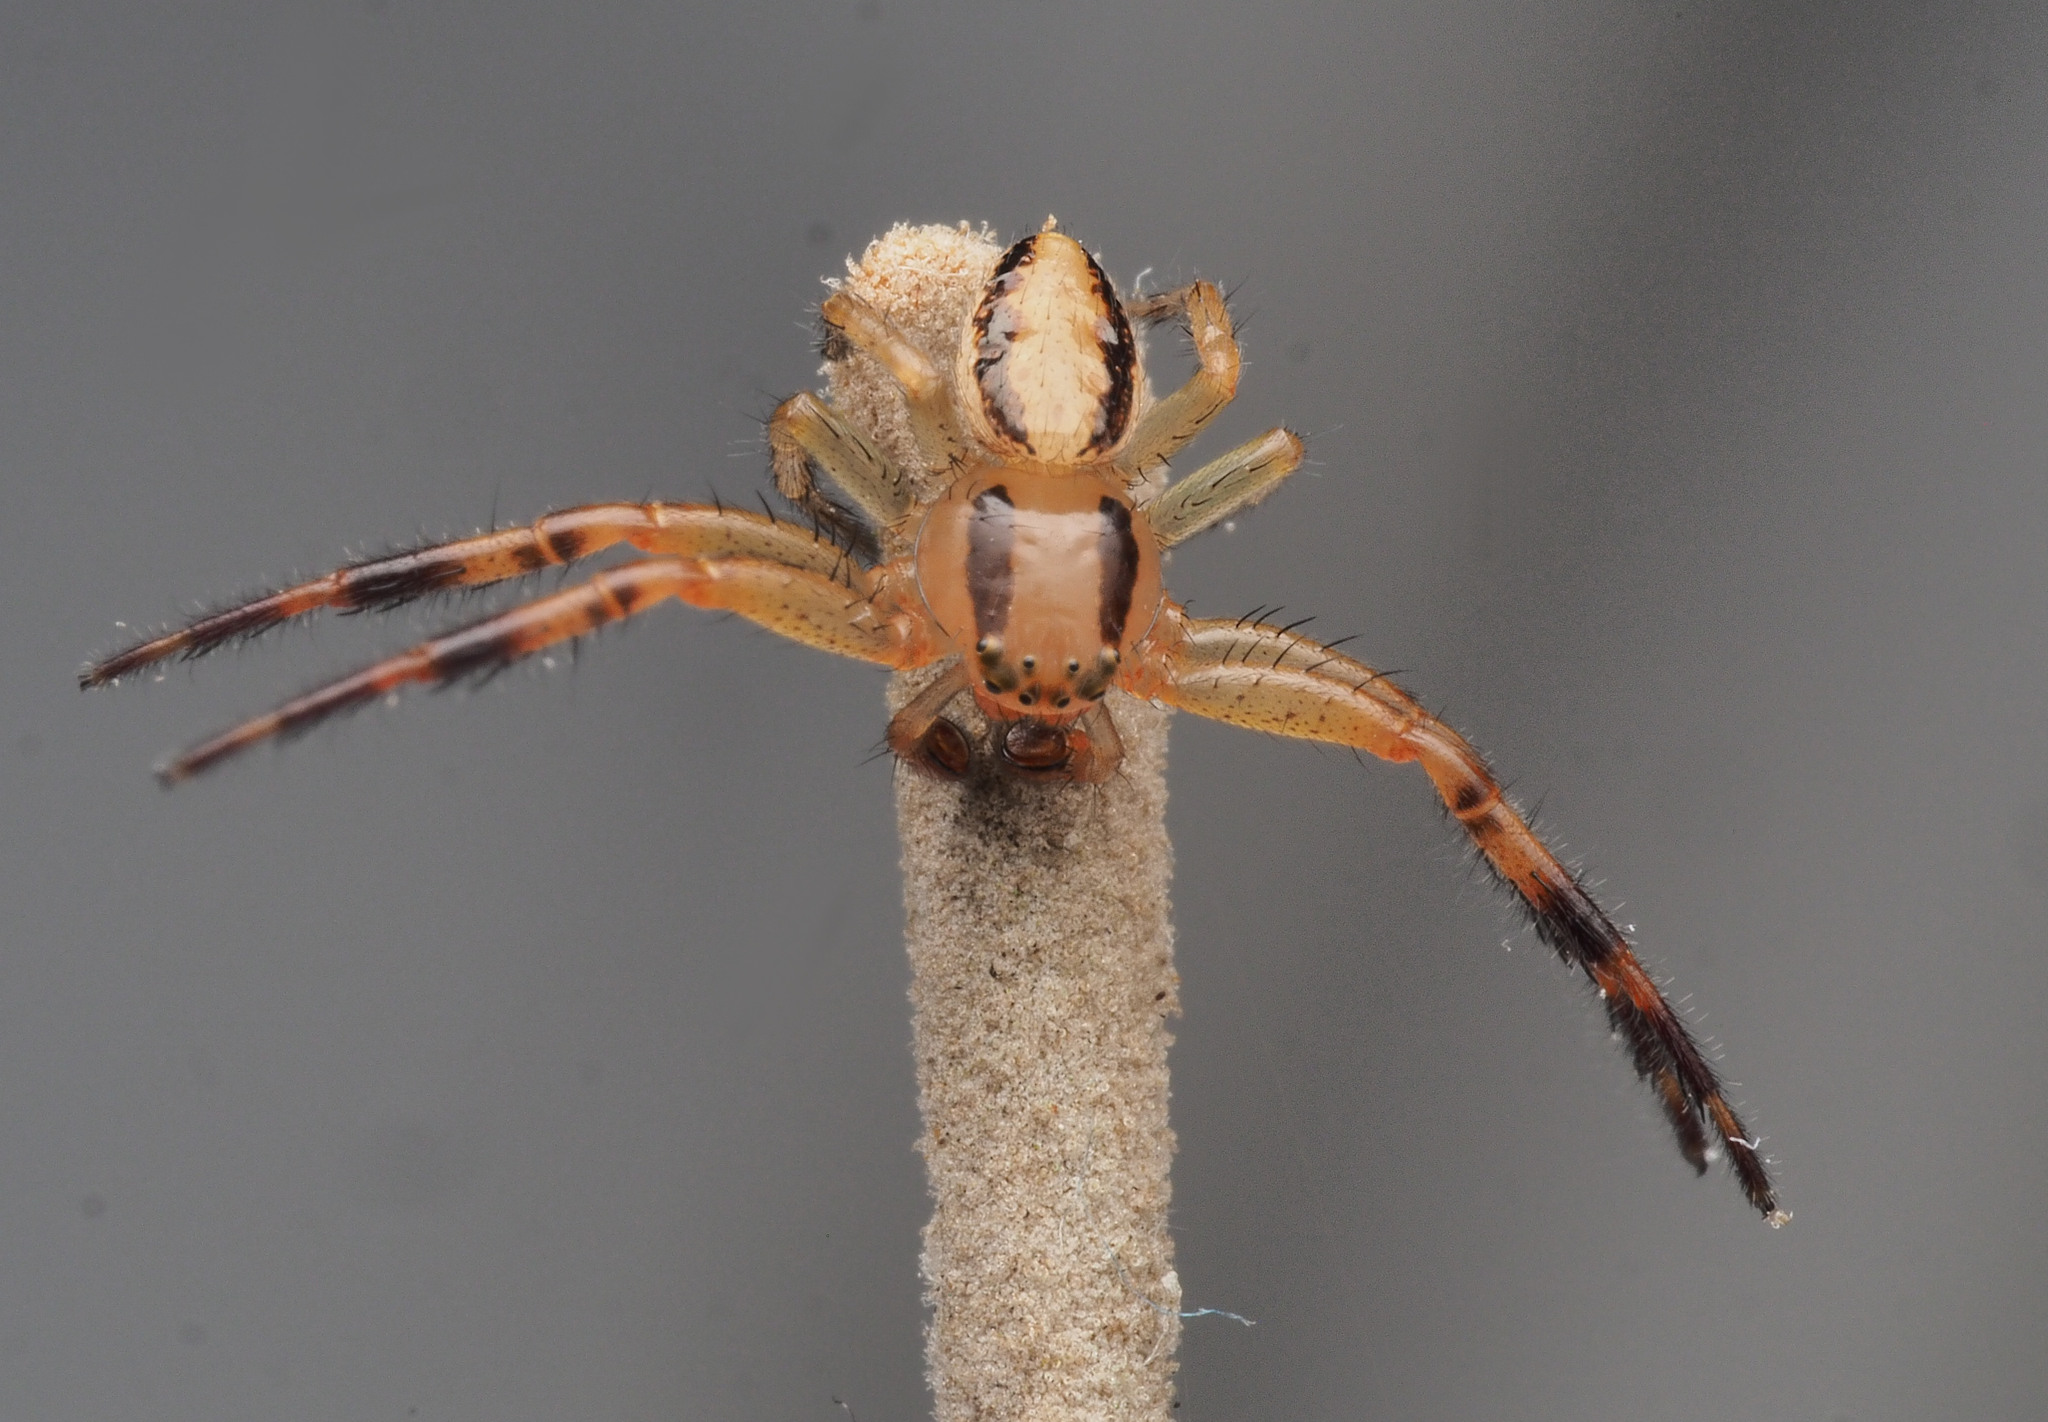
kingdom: Animalia
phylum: Arthropoda
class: Arachnida
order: Araneae
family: Thomisidae
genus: Australomisidia
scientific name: Australomisidia cruentata
